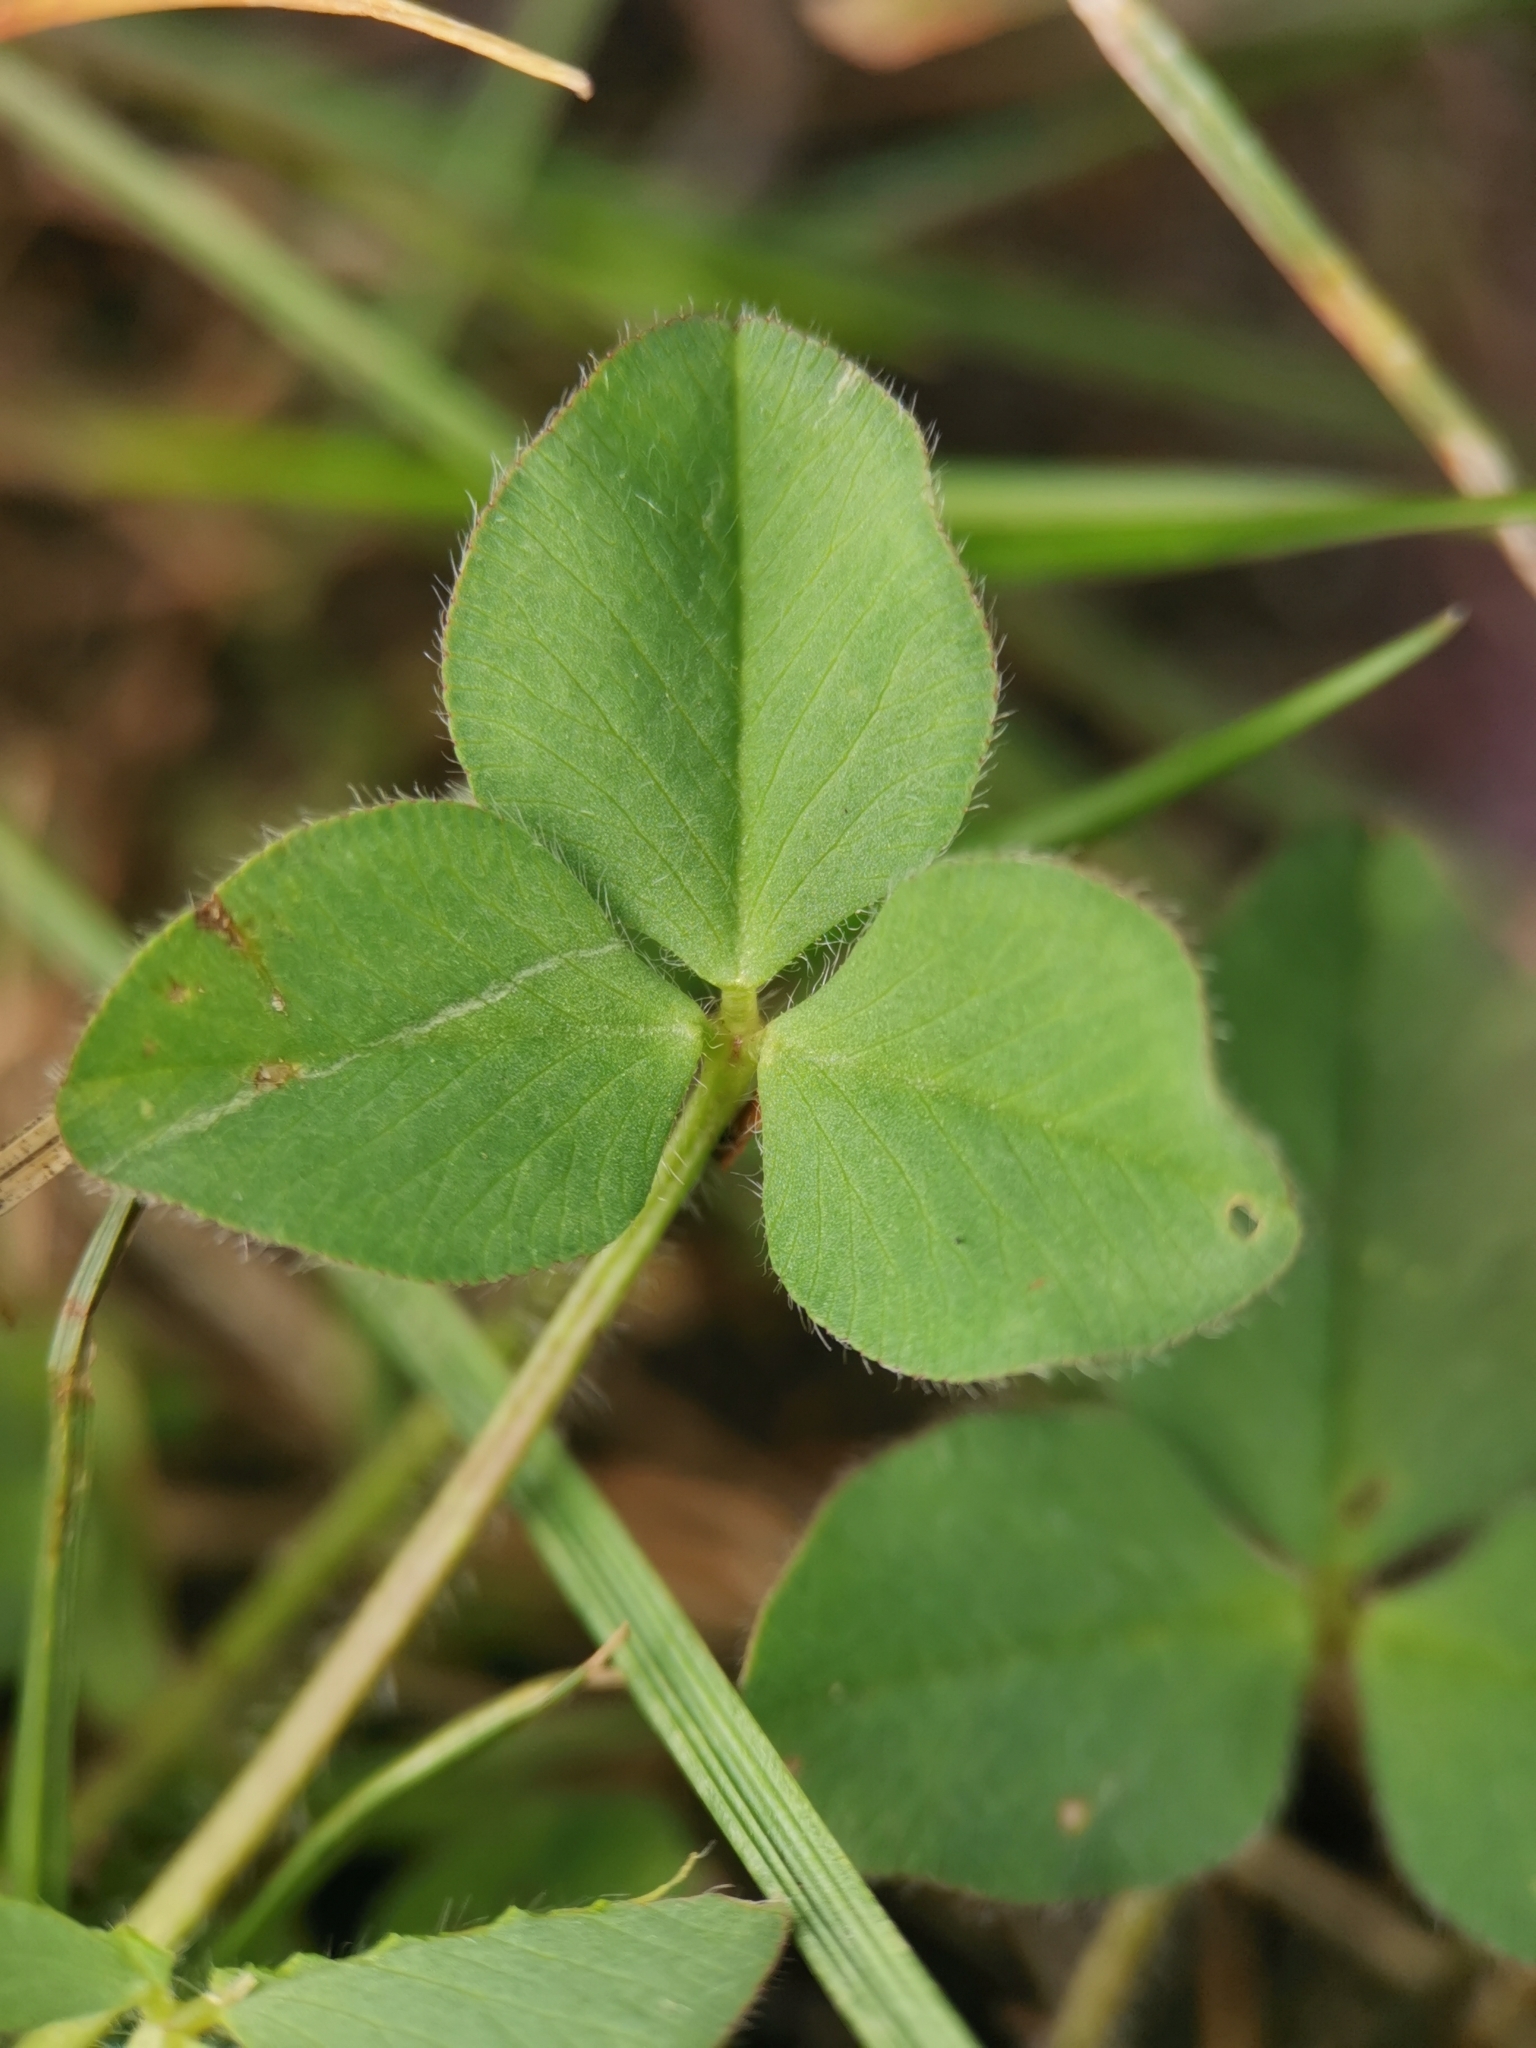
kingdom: Plantae
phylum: Tracheophyta
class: Magnoliopsida
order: Fabales
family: Fabaceae
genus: Trifolium
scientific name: Trifolium pratense
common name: Red clover
